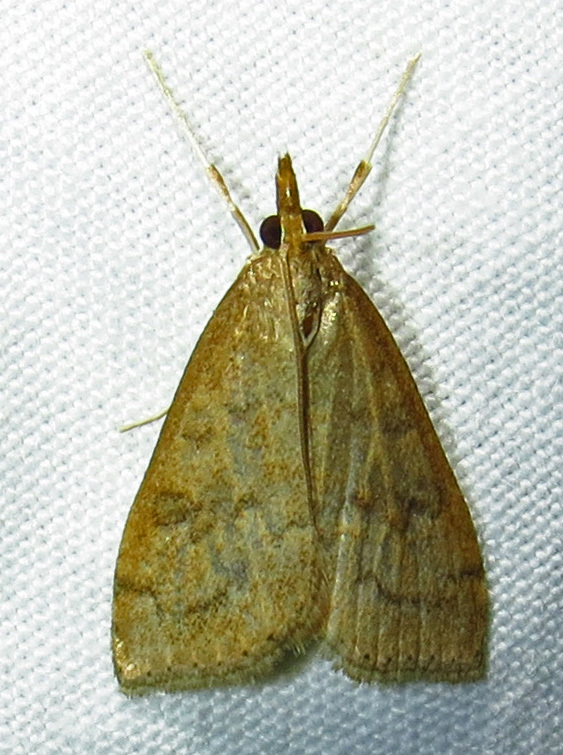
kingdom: Animalia
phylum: Arthropoda
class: Insecta
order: Lepidoptera
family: Crambidae
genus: Udea
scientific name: Udea rubigalis
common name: Celery leaftier moth
